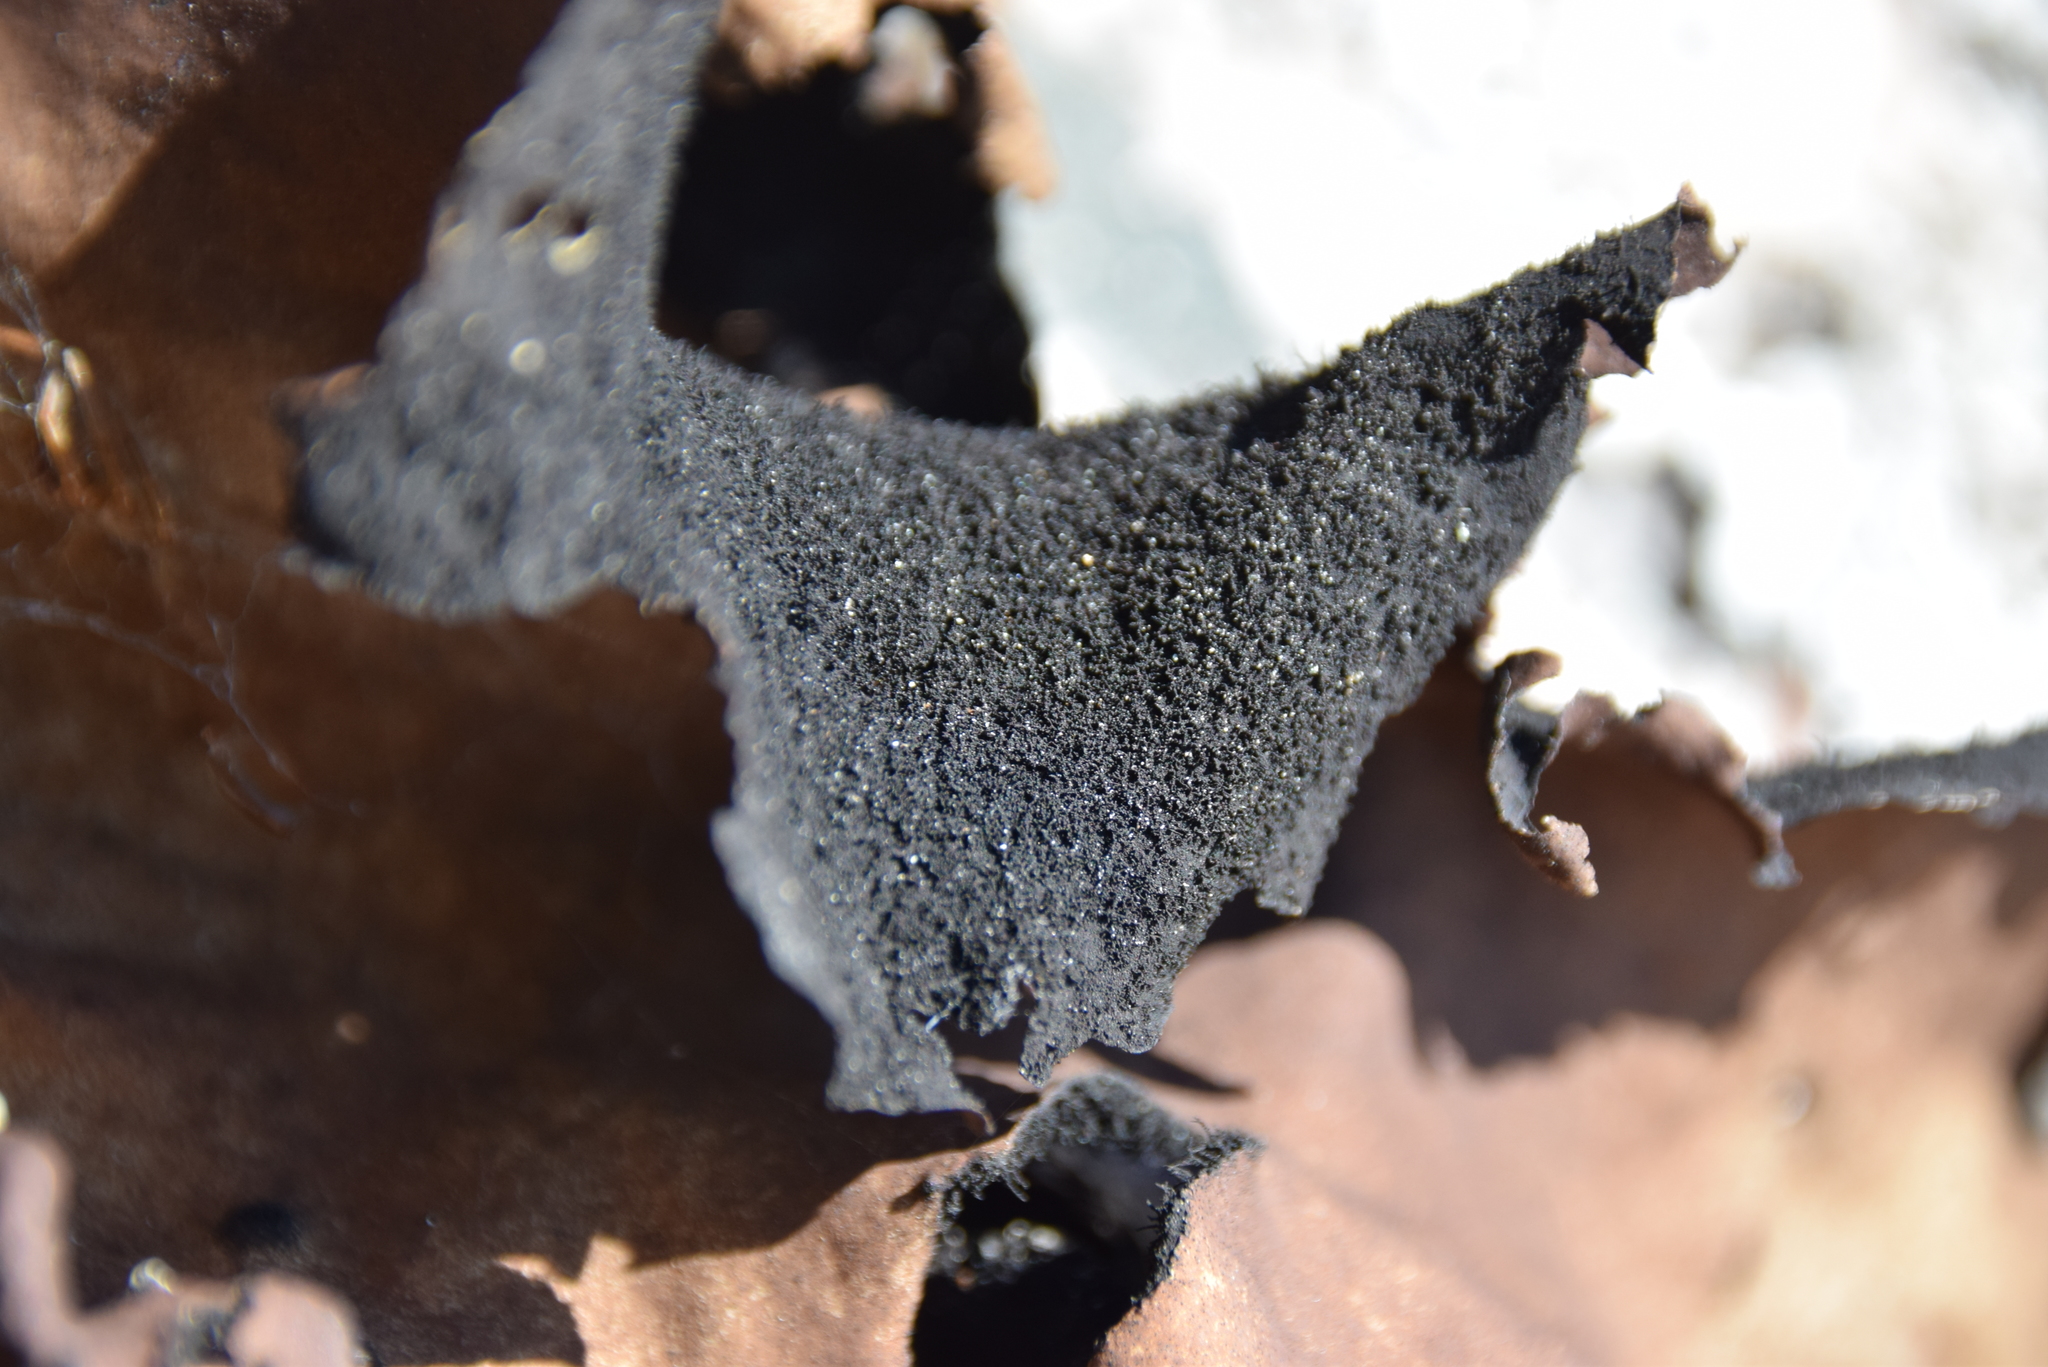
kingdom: Fungi
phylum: Ascomycota
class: Lecanoromycetes
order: Umbilicariales
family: Umbilicariaceae
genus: Umbilicaria
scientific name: Umbilicaria mammulata
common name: Smooth rock tripe
